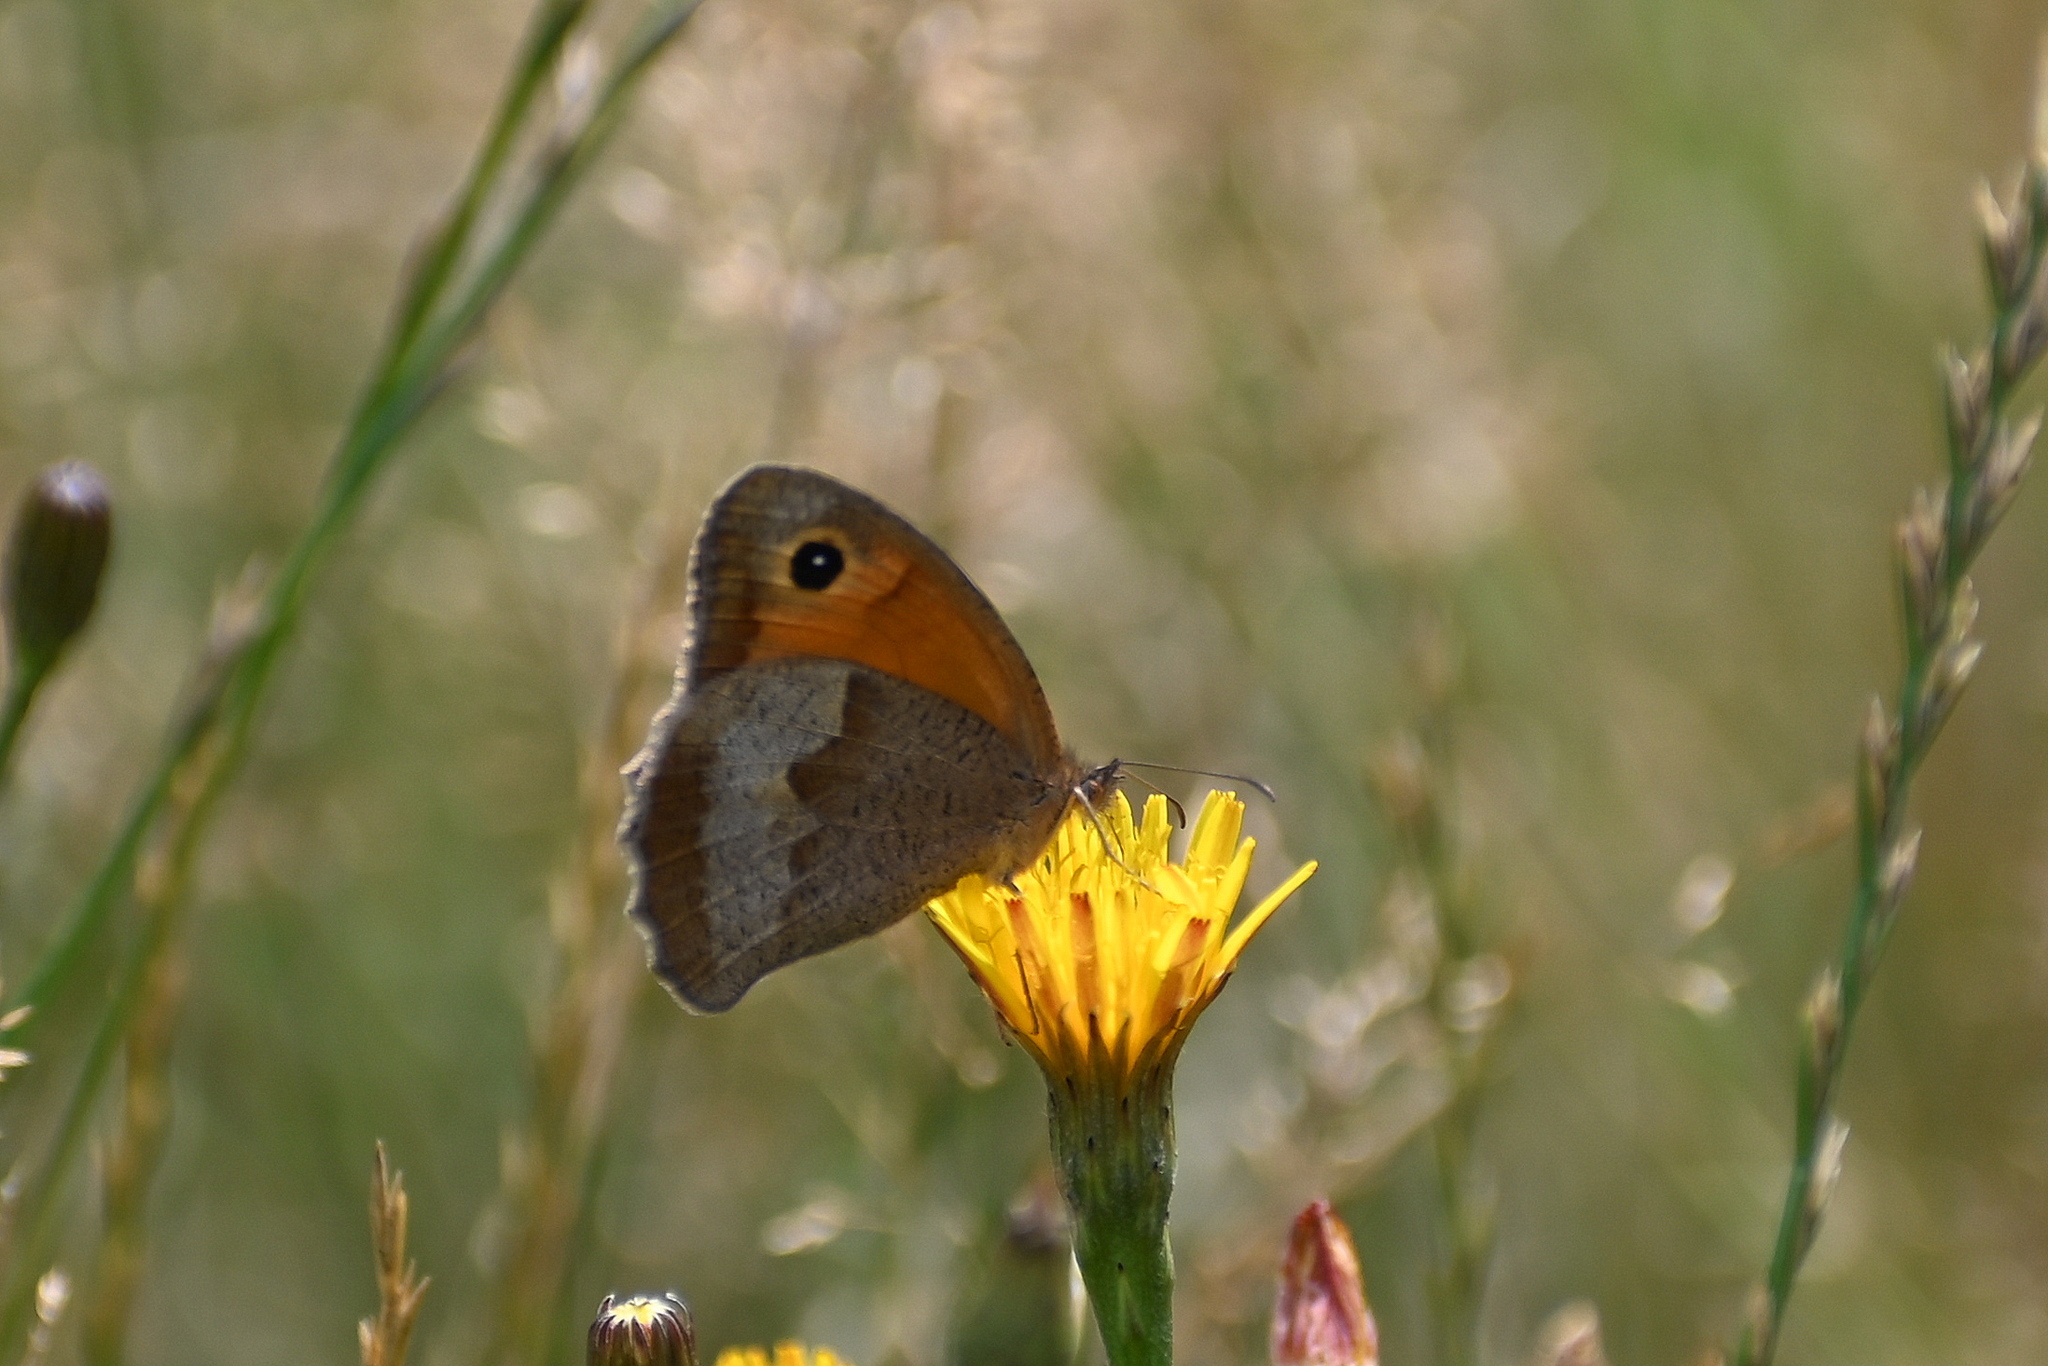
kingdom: Animalia
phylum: Arthropoda
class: Insecta
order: Lepidoptera
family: Nymphalidae
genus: Maniola
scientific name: Maniola jurtina
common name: Meadow brown
